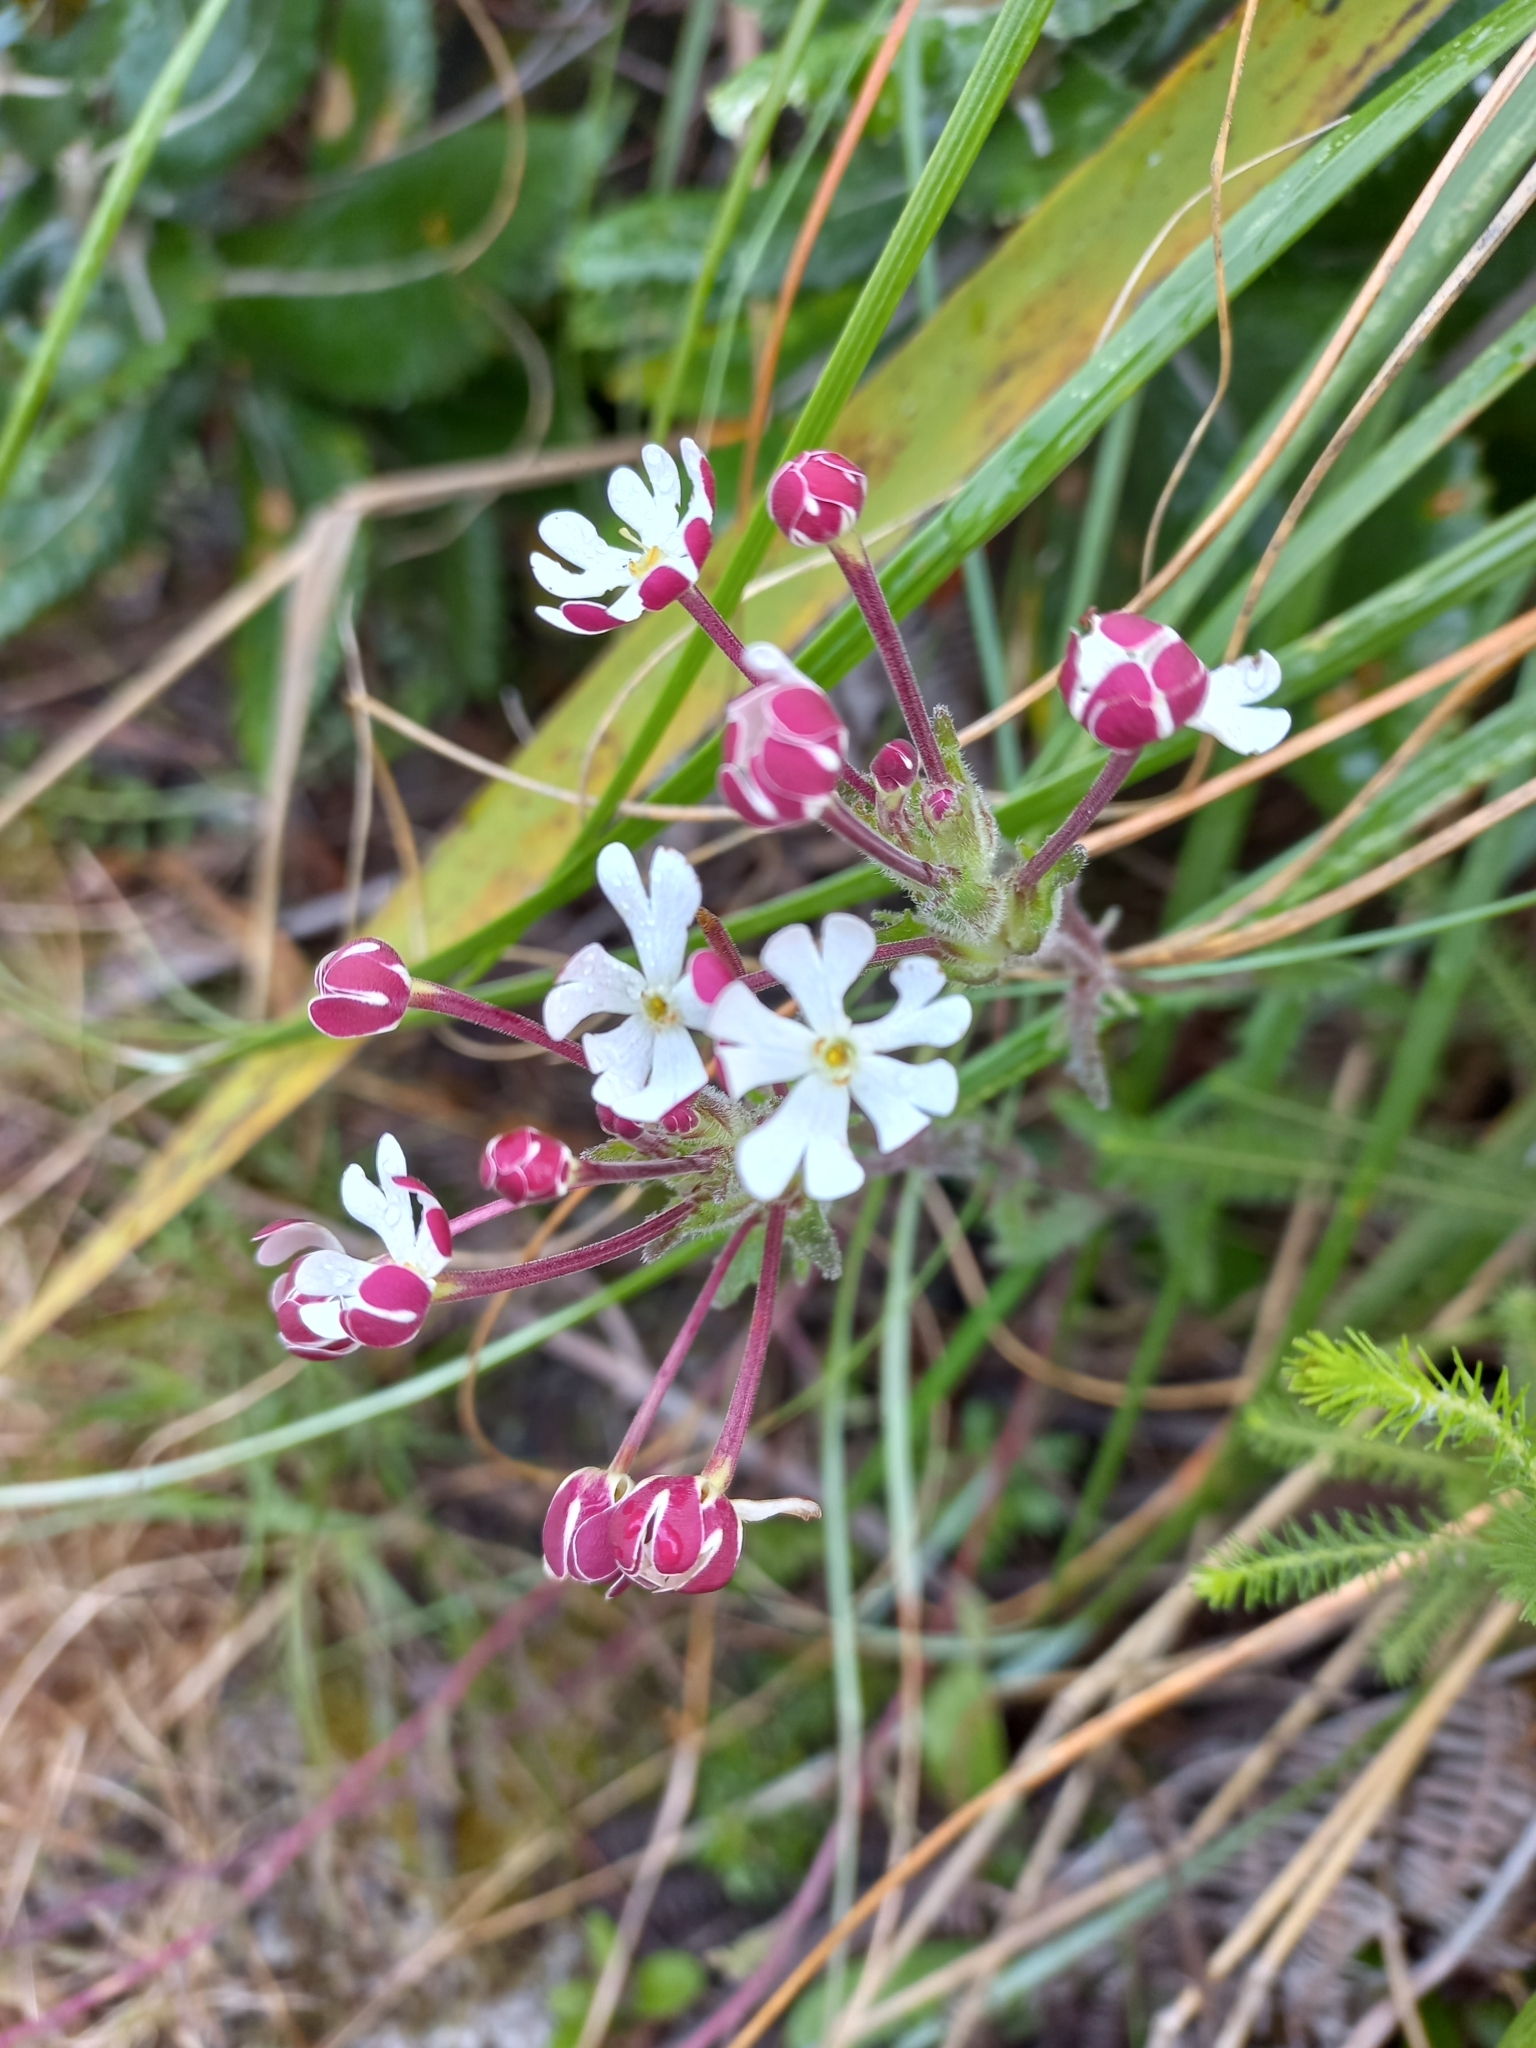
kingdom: Plantae
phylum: Tracheophyta
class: Magnoliopsida
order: Lamiales
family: Scrophulariaceae
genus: Zaluzianskya
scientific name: Zaluzianskya capensis
